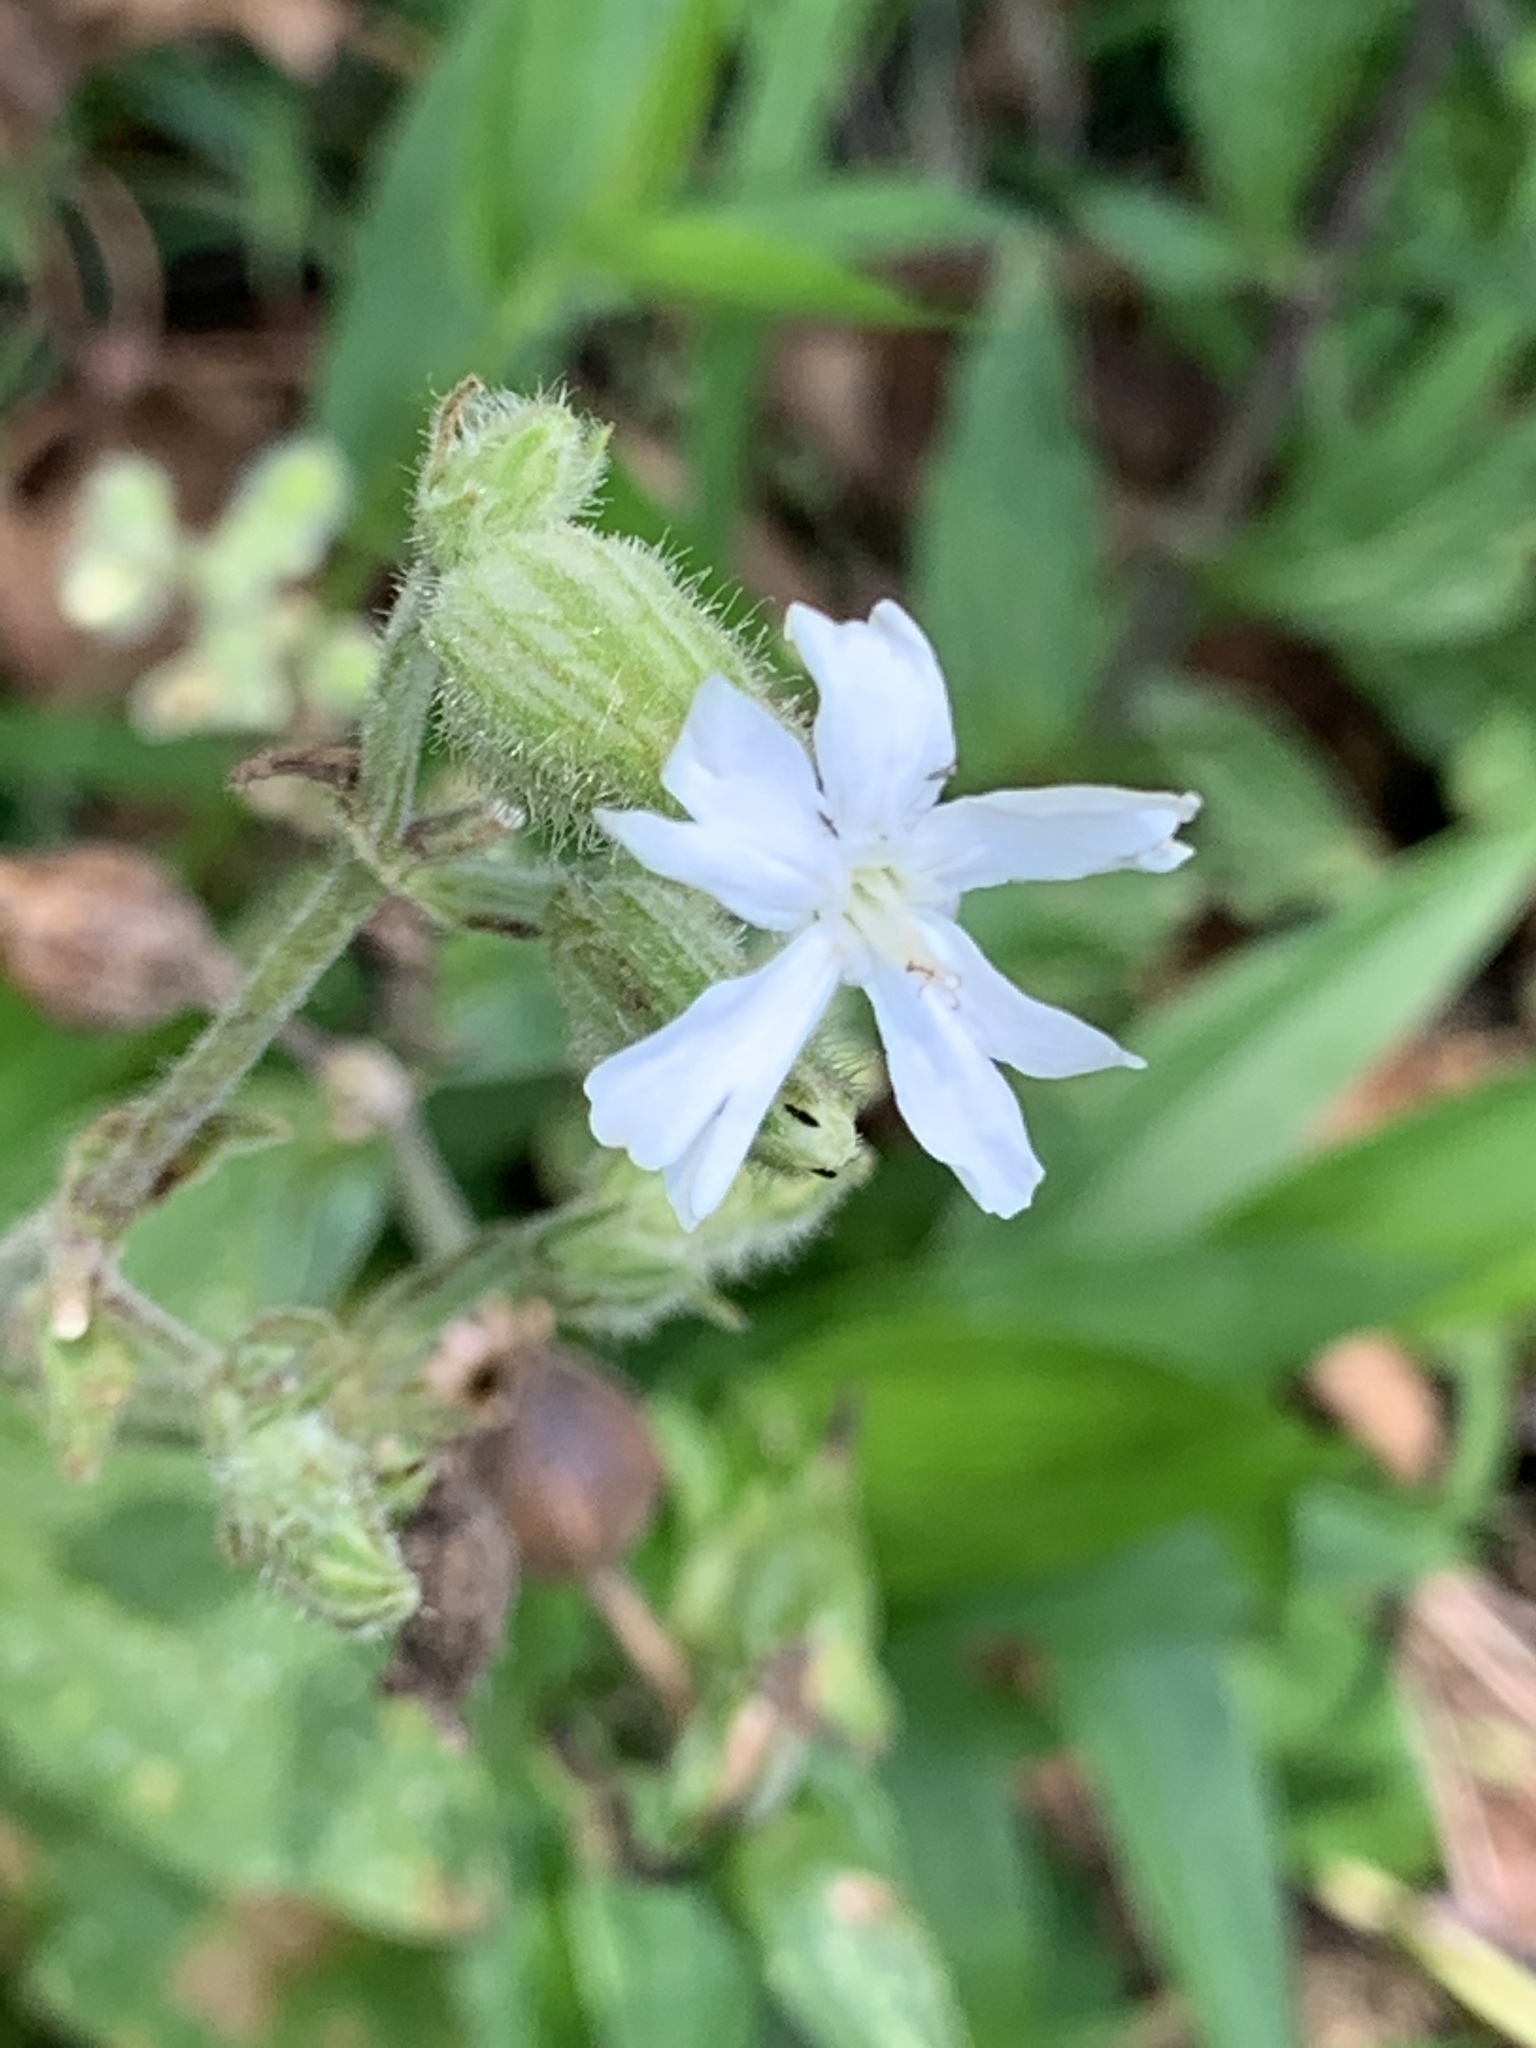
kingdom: Plantae
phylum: Tracheophyta
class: Magnoliopsida
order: Caryophyllales
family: Caryophyllaceae
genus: Silene
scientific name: Silene latifolia
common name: White campion
